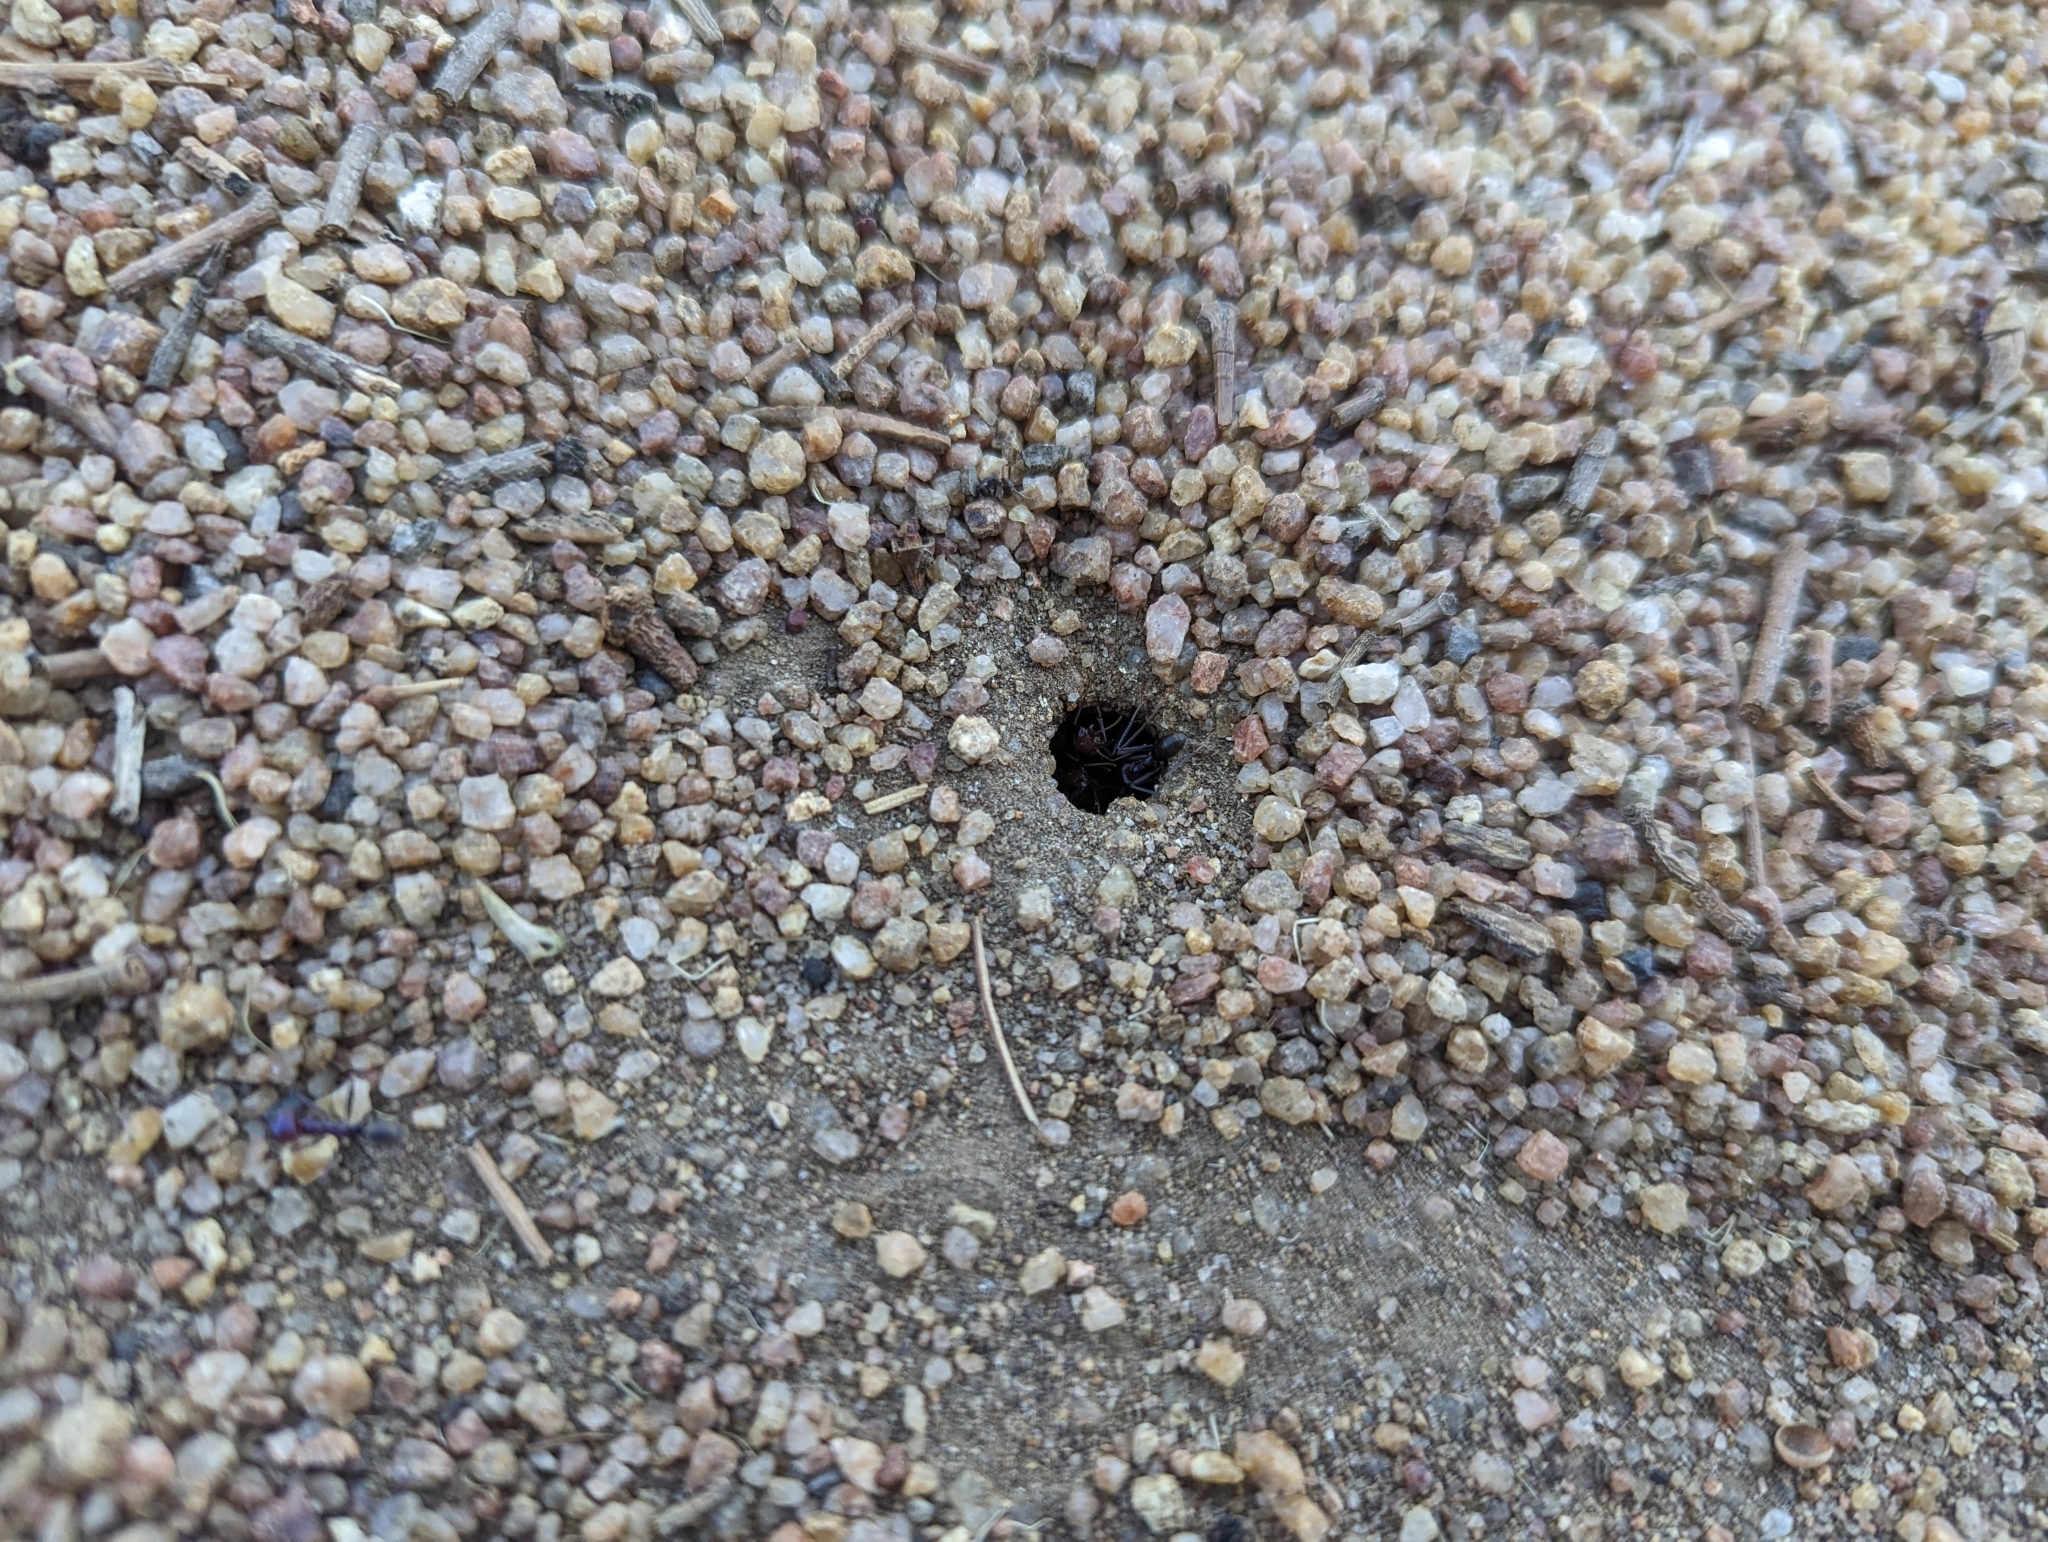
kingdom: Animalia
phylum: Arthropoda
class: Insecta
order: Hymenoptera
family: Formicidae
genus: Iridomyrmex
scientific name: Iridomyrmex purpureus
